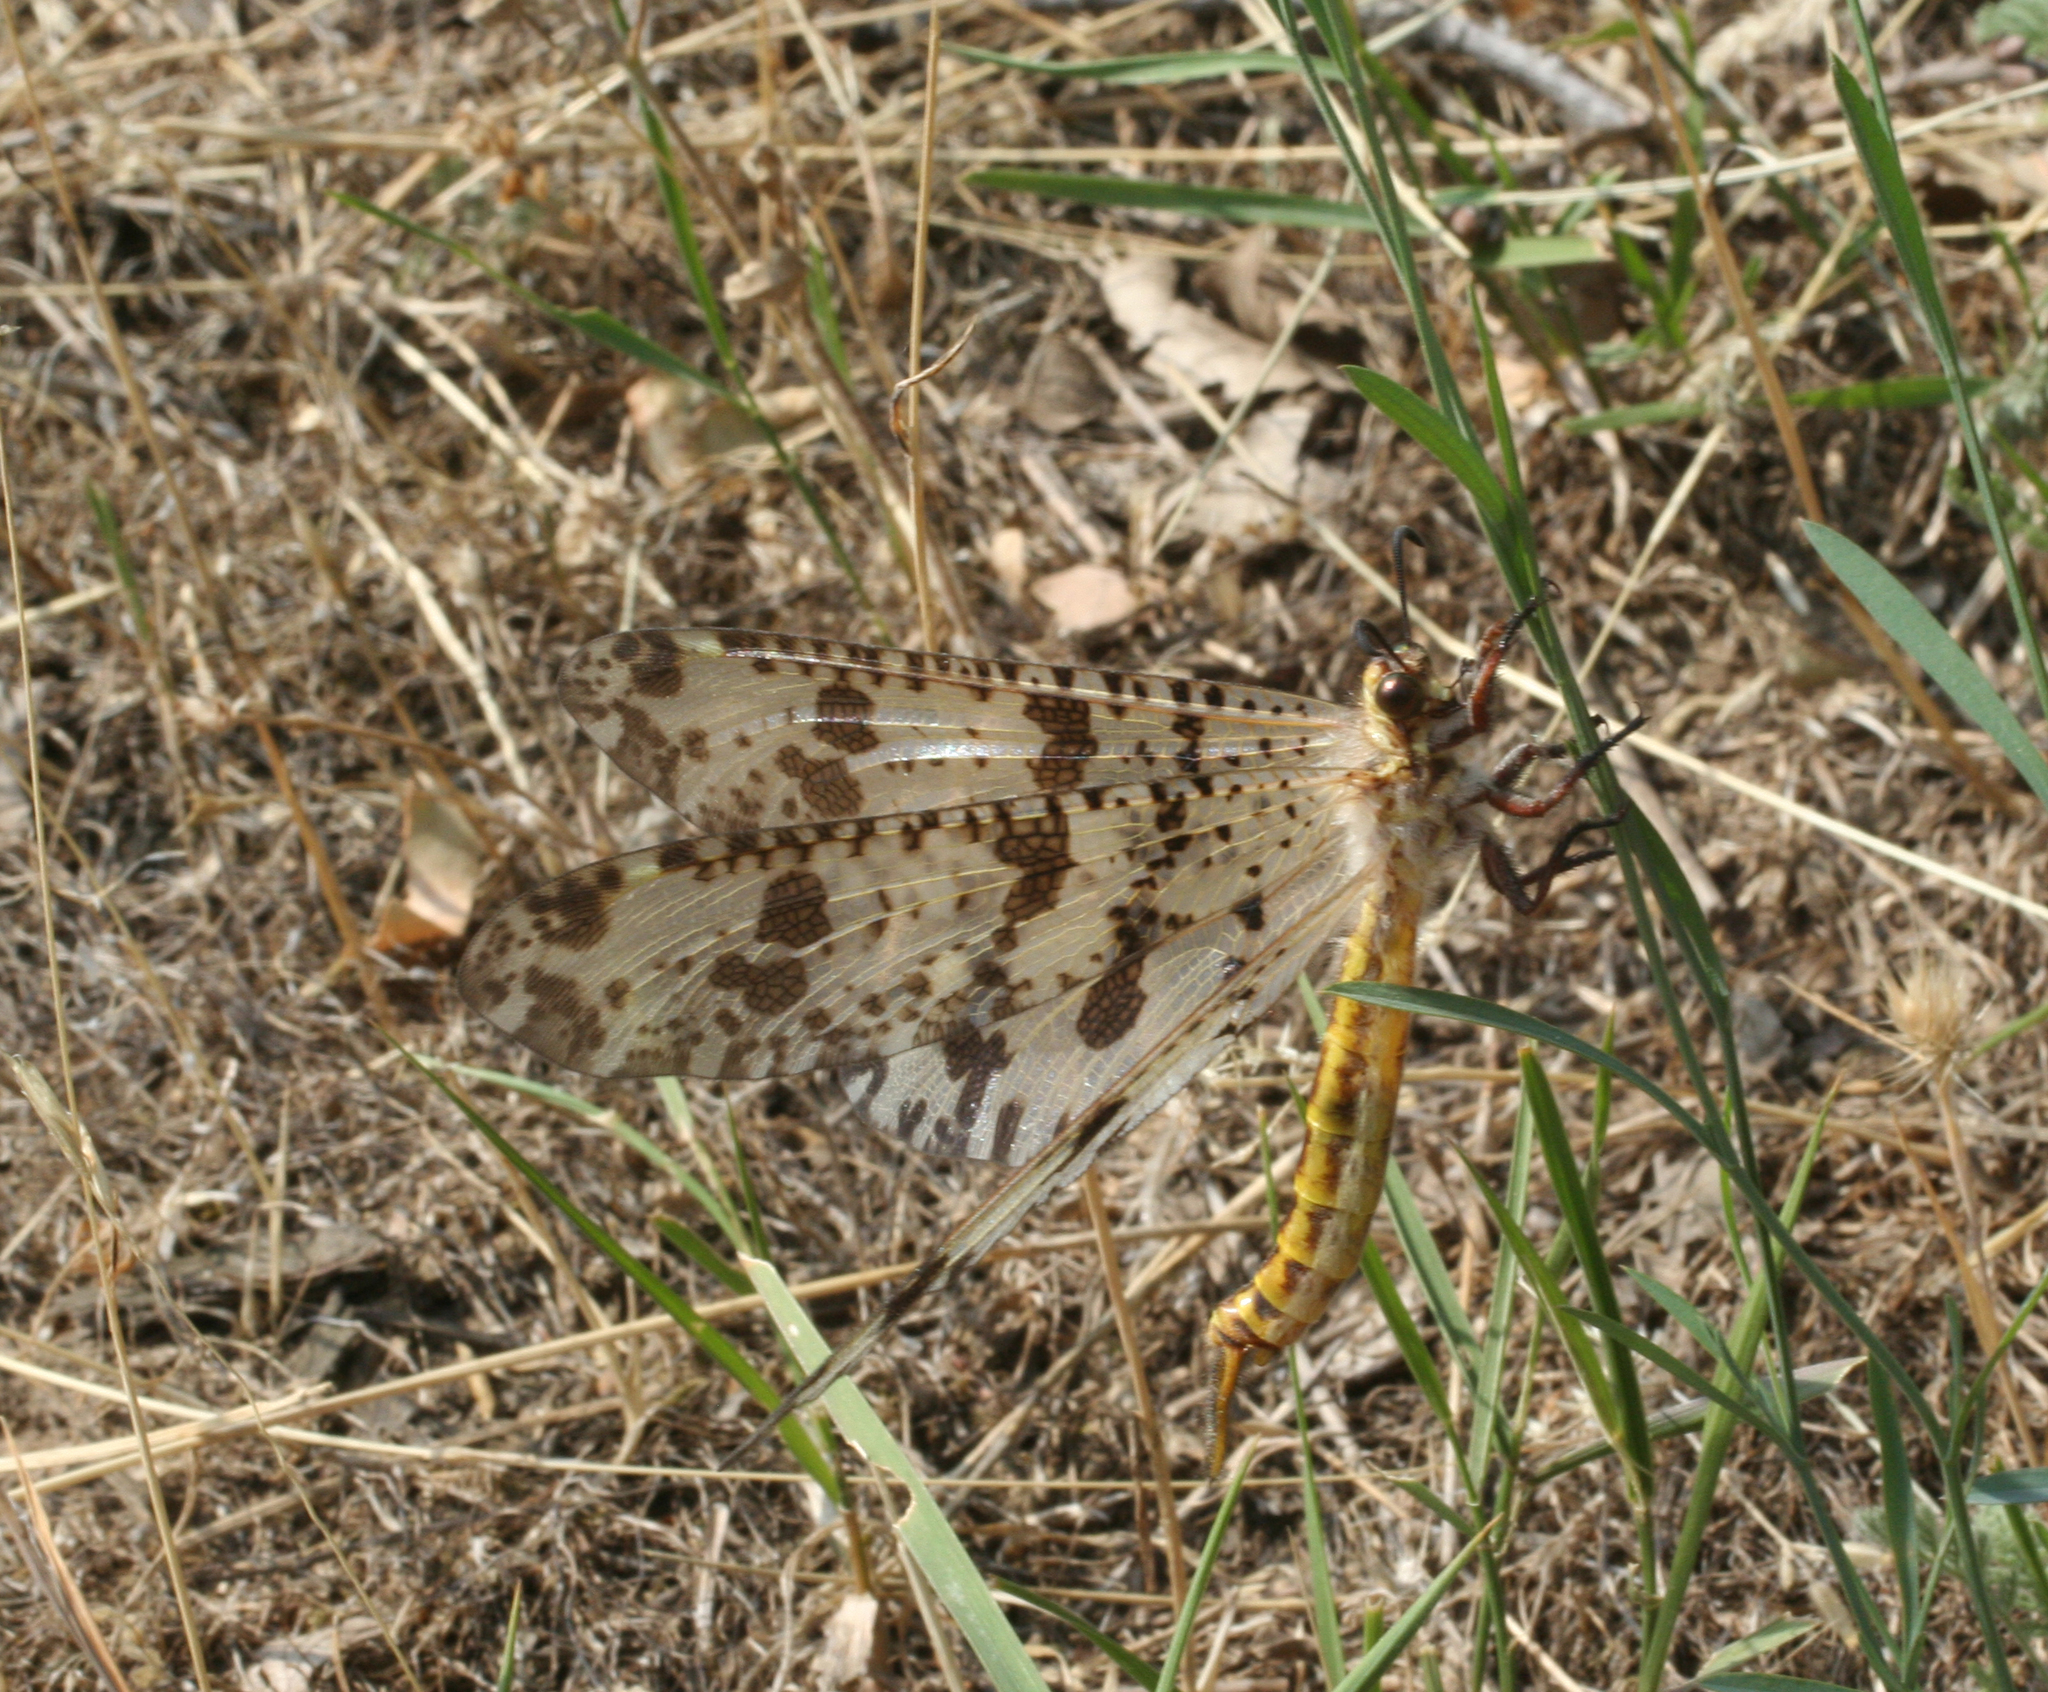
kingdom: Animalia
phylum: Arthropoda
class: Insecta
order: Neuroptera
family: Myrmeleontidae
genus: Palpares
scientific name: Palpares libelluloides
